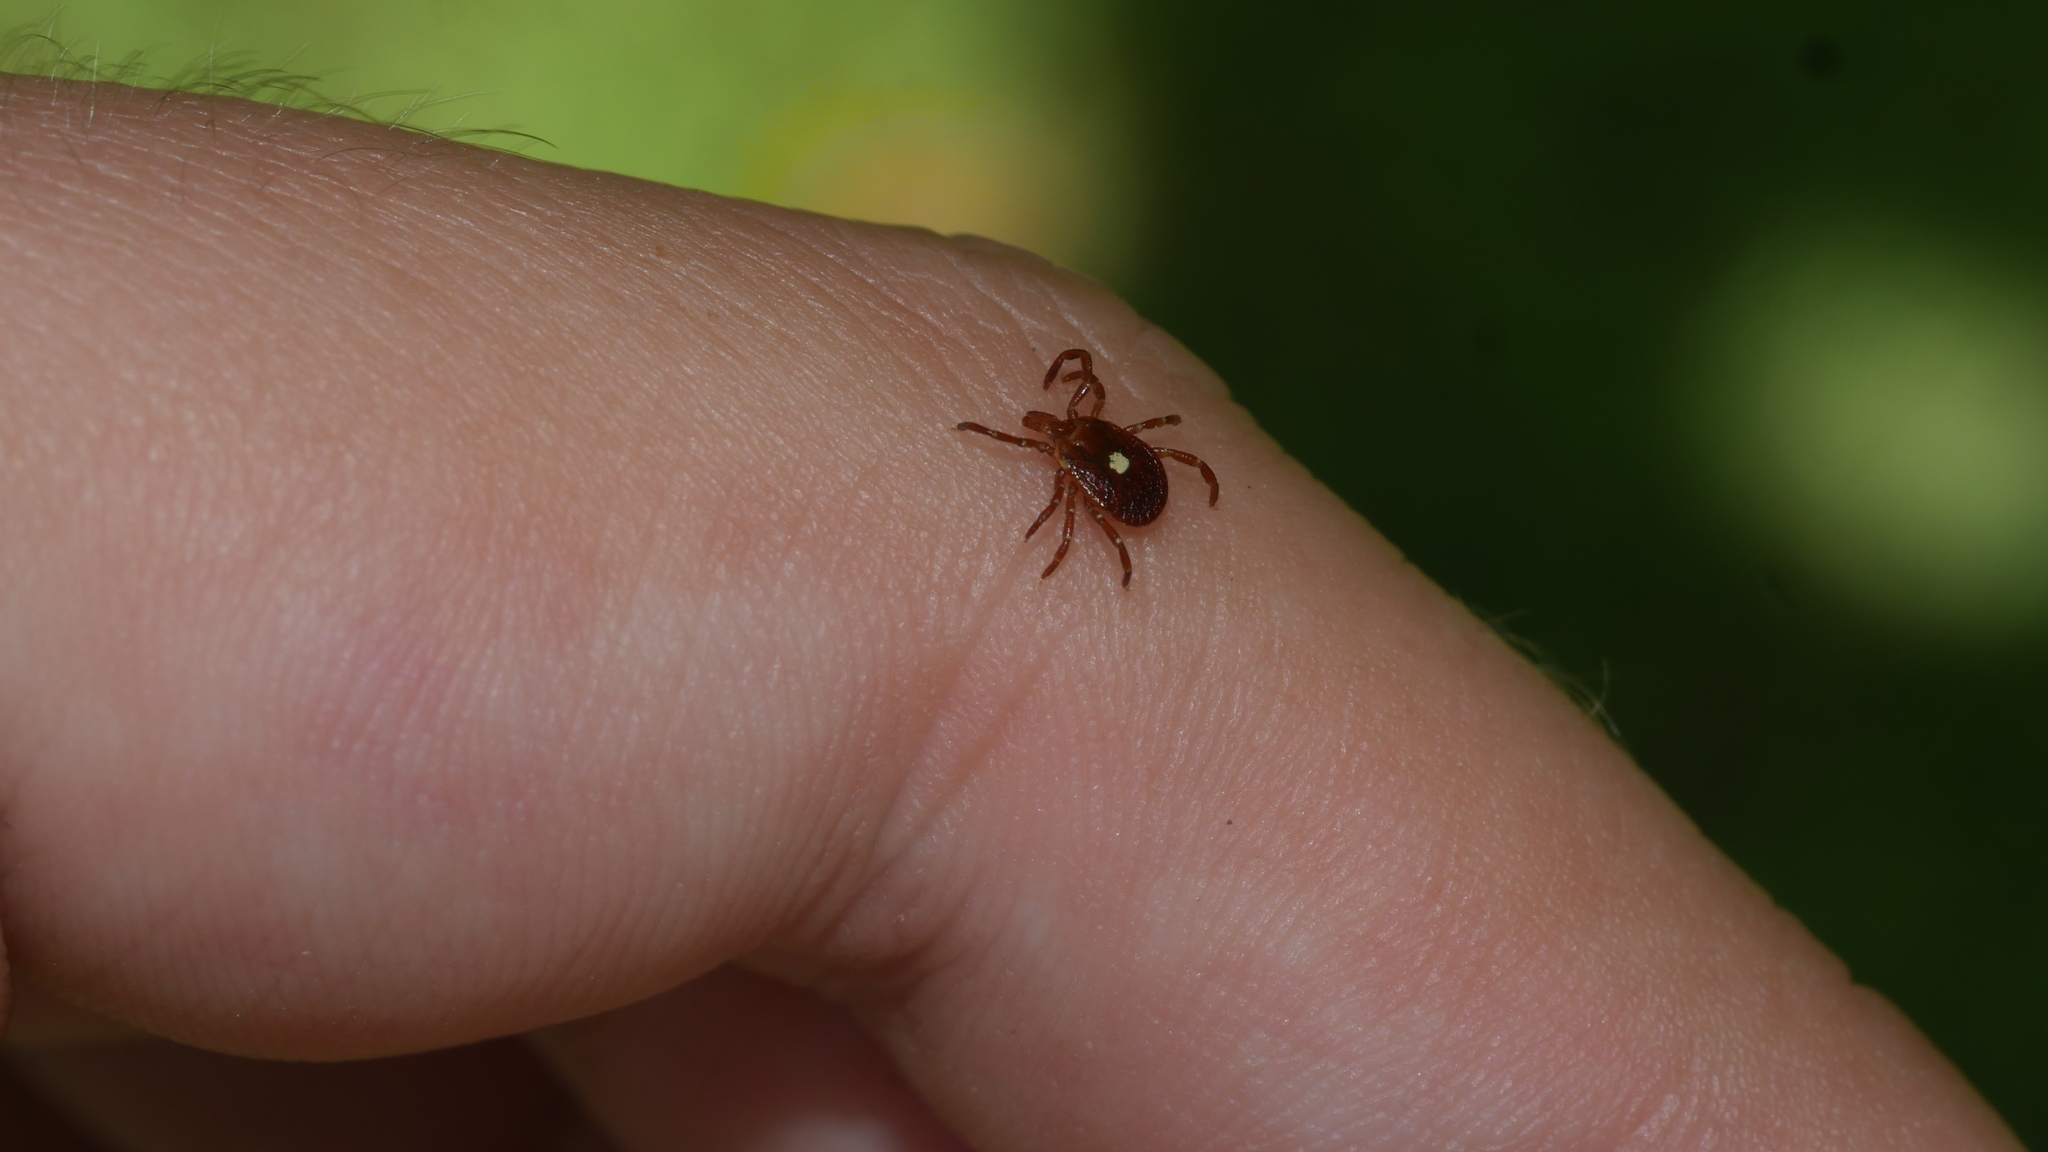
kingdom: Animalia
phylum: Arthropoda
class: Arachnida
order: Ixodida
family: Ixodidae
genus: Amblyomma
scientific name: Amblyomma americanum
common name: Lone star tick
